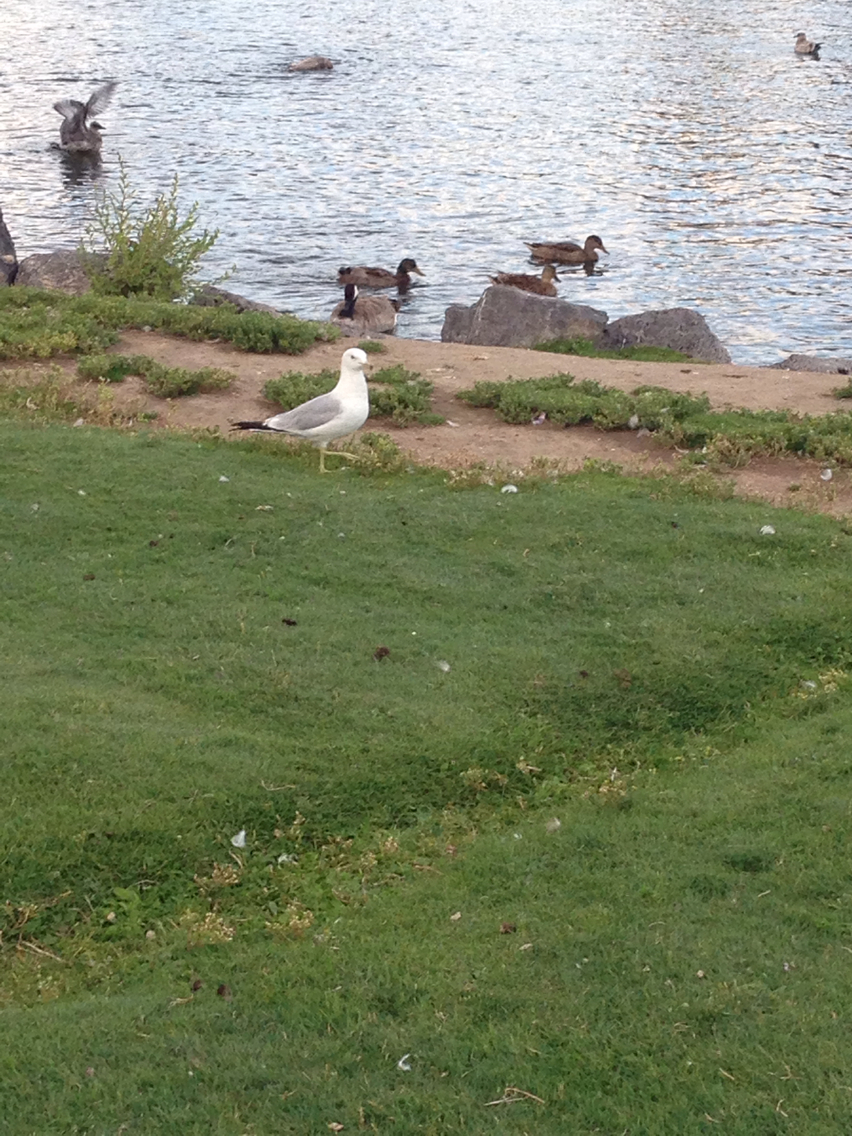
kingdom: Animalia
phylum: Chordata
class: Aves
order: Anseriformes
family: Anatidae
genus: Anas
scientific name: Anas platyrhynchos
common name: Mallard
